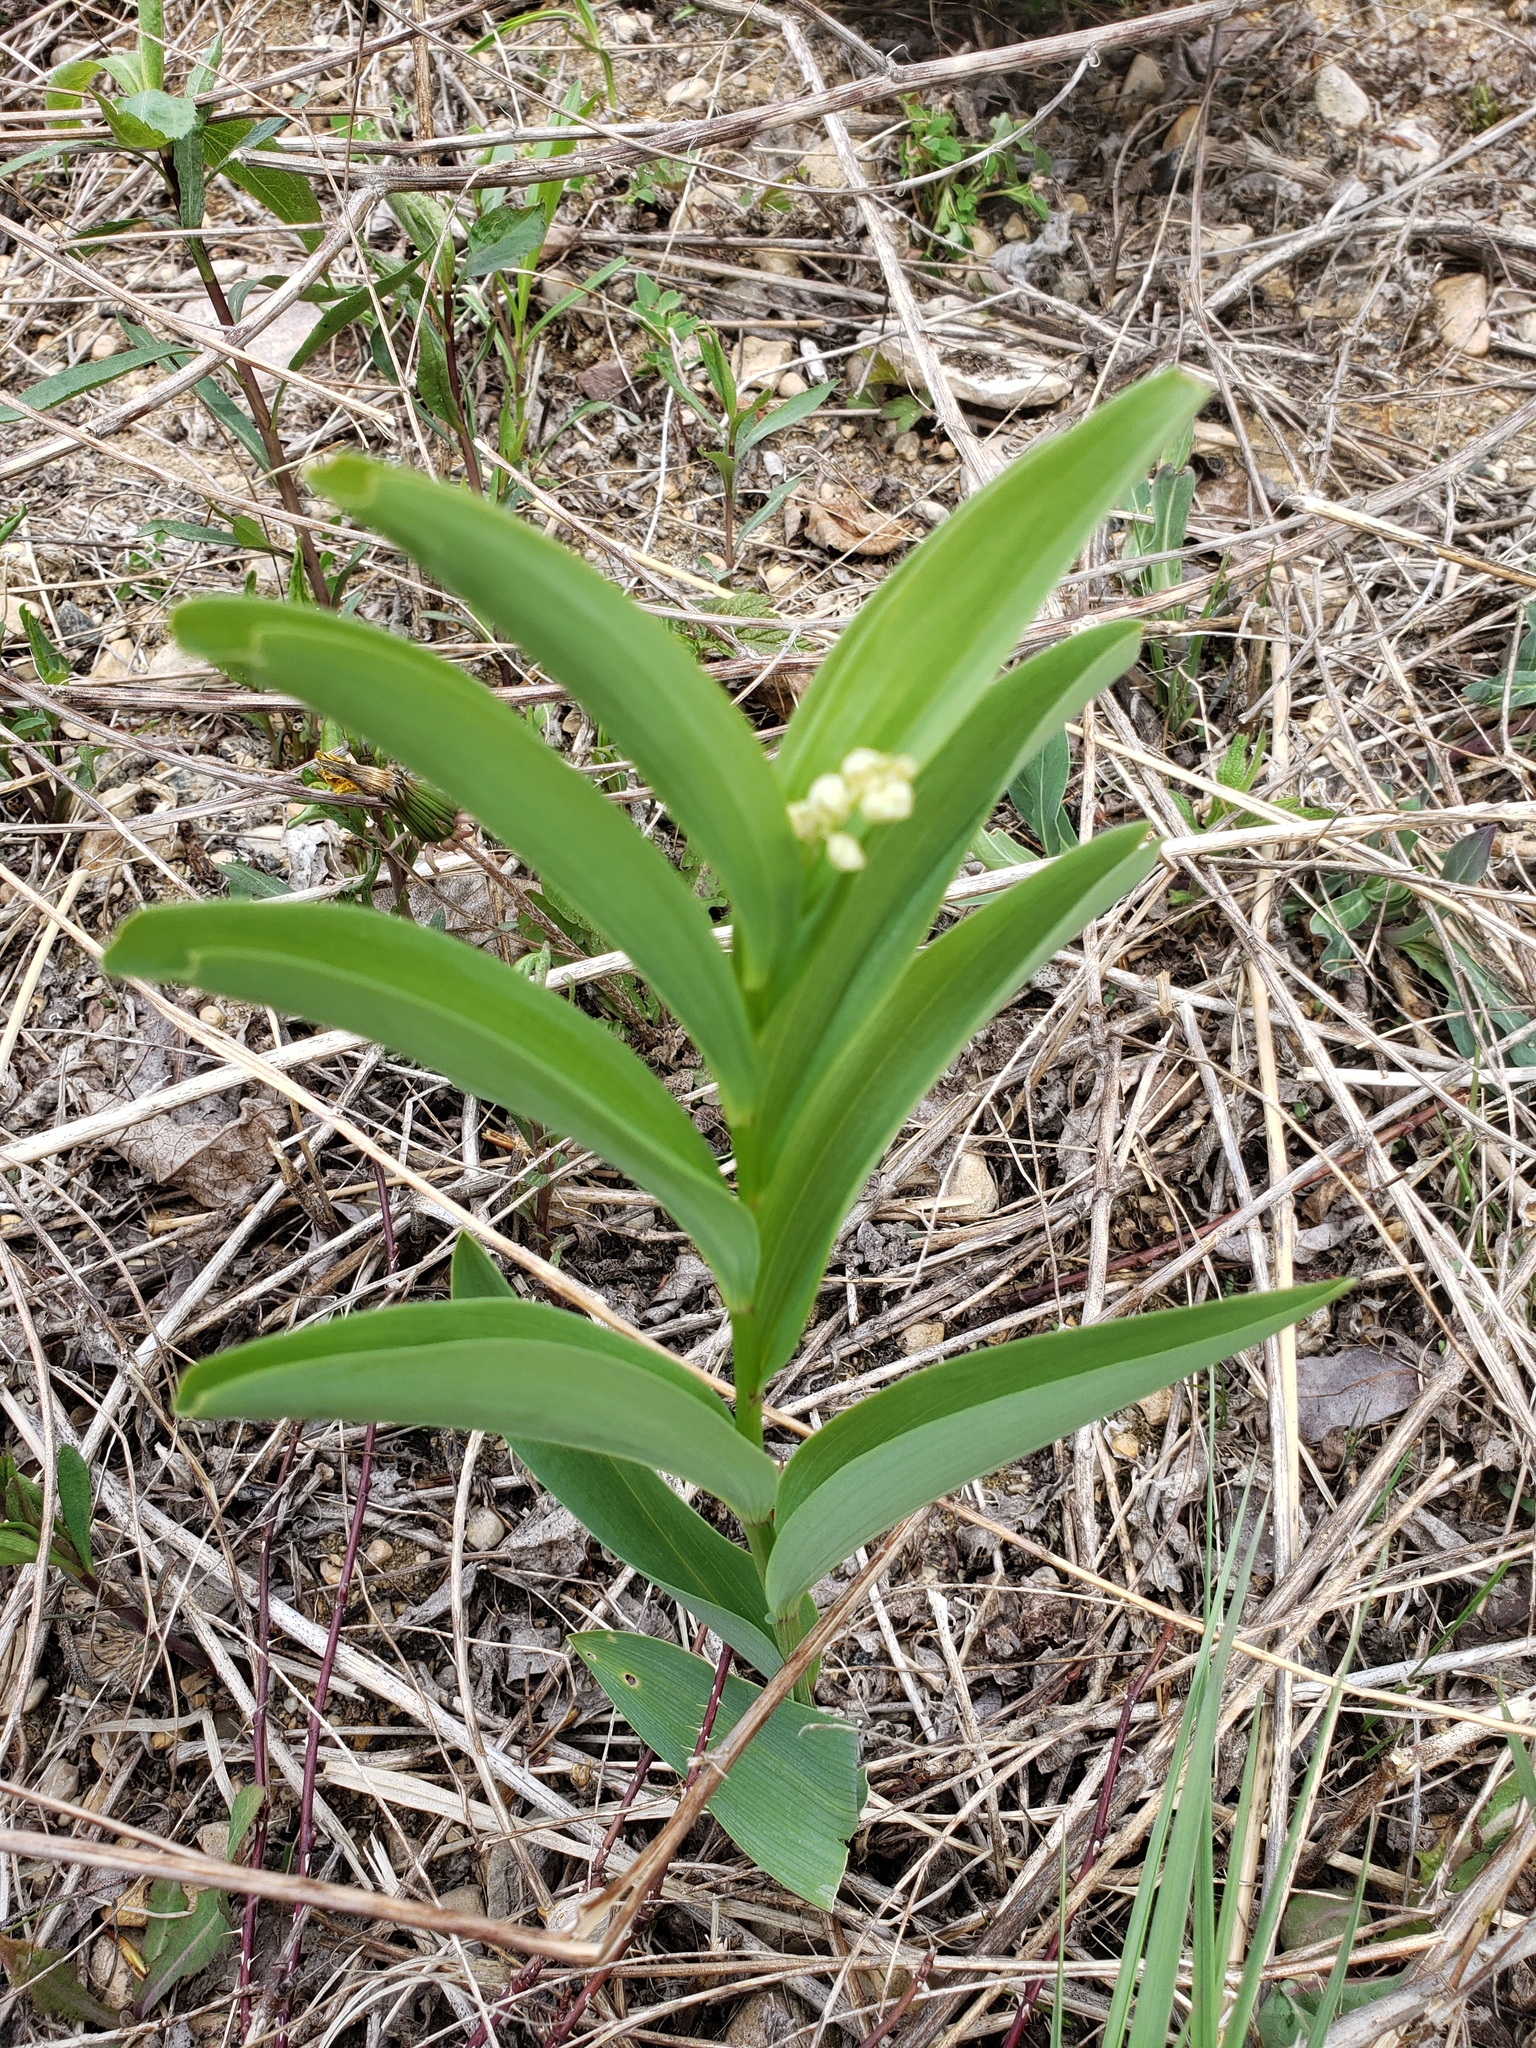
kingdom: Plantae
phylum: Tracheophyta
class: Liliopsida
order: Asparagales
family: Asparagaceae
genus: Maianthemum
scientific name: Maianthemum stellatum
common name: Little false solomon's seal
